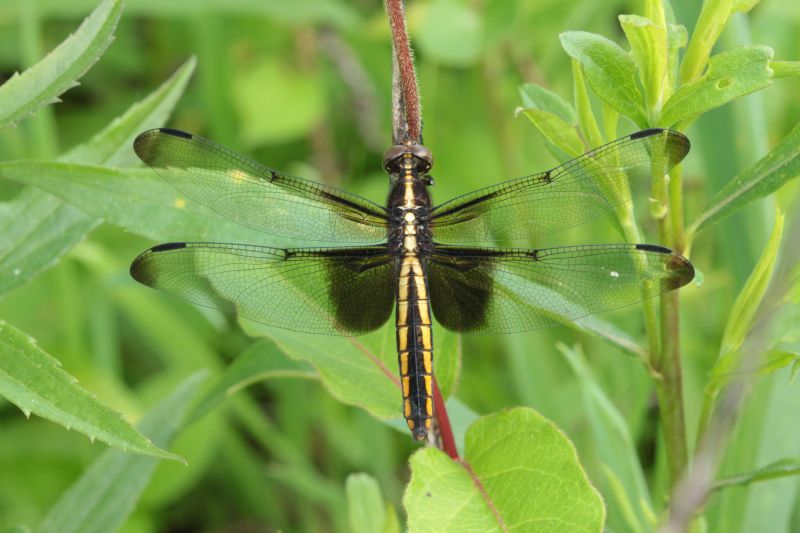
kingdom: Animalia
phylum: Arthropoda
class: Insecta
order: Odonata
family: Libellulidae
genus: Libellula
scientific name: Libellula luctuosa
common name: Widow skimmer
